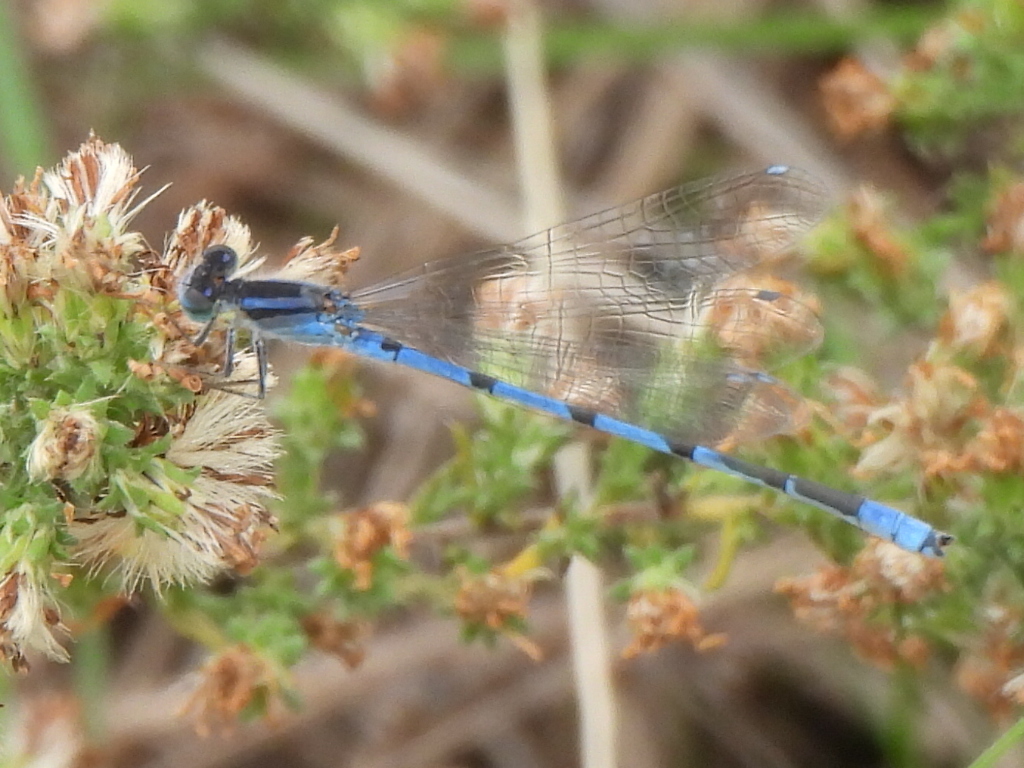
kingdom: Animalia
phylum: Arthropoda
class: Insecta
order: Odonata
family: Coenagrionidae
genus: Enallagma
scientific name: Enallagma civile
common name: Damselfly
